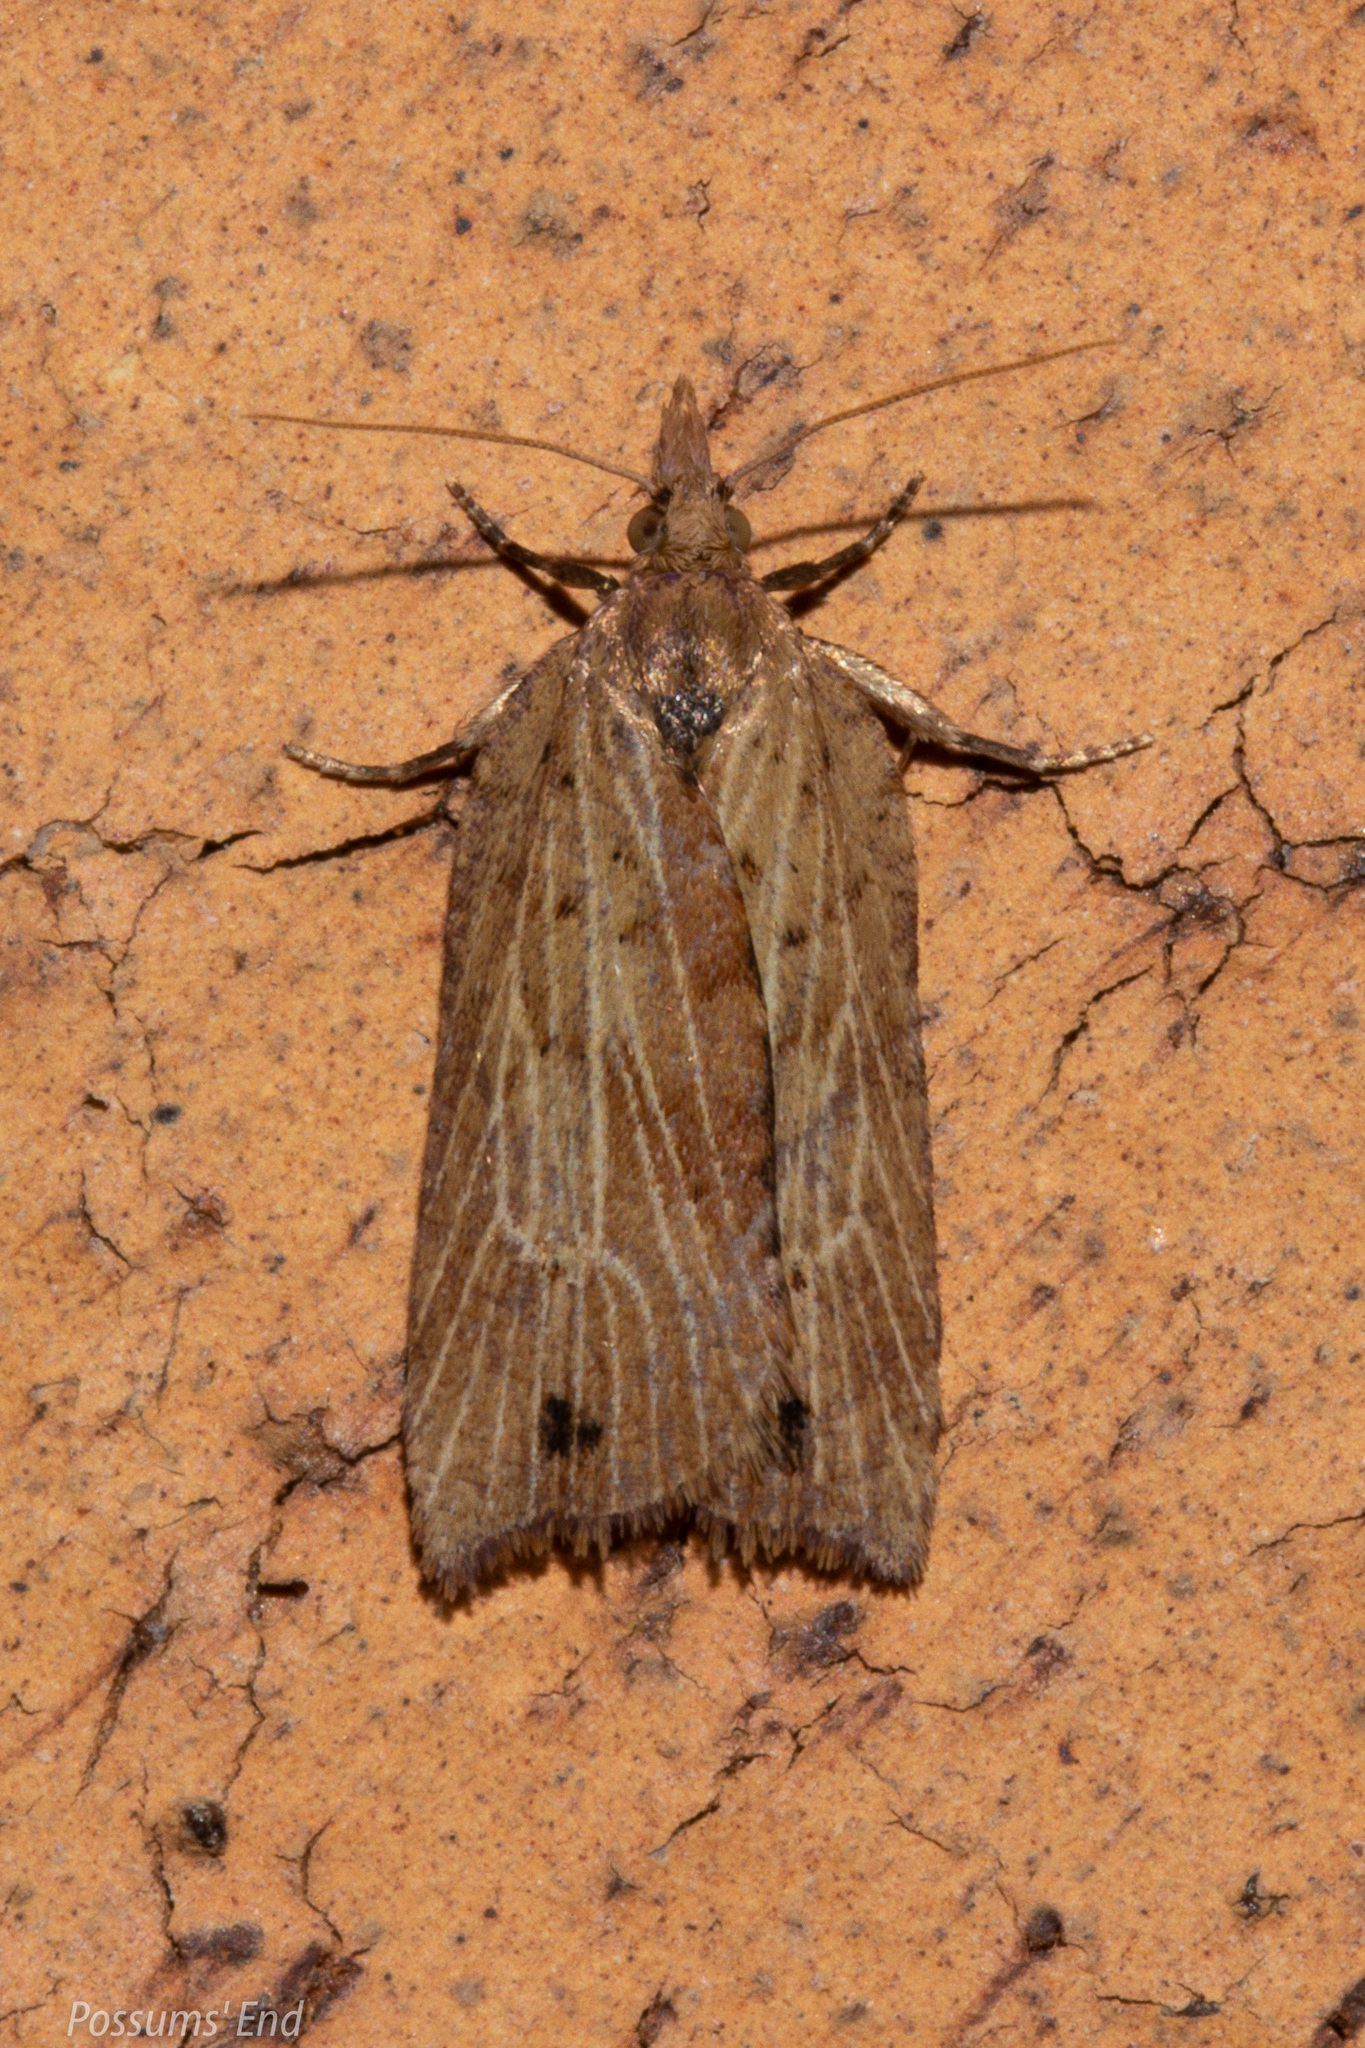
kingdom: Animalia
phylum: Arthropoda
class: Insecta
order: Lepidoptera
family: Tortricidae
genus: Planotortrix
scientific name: Planotortrix notophaea
